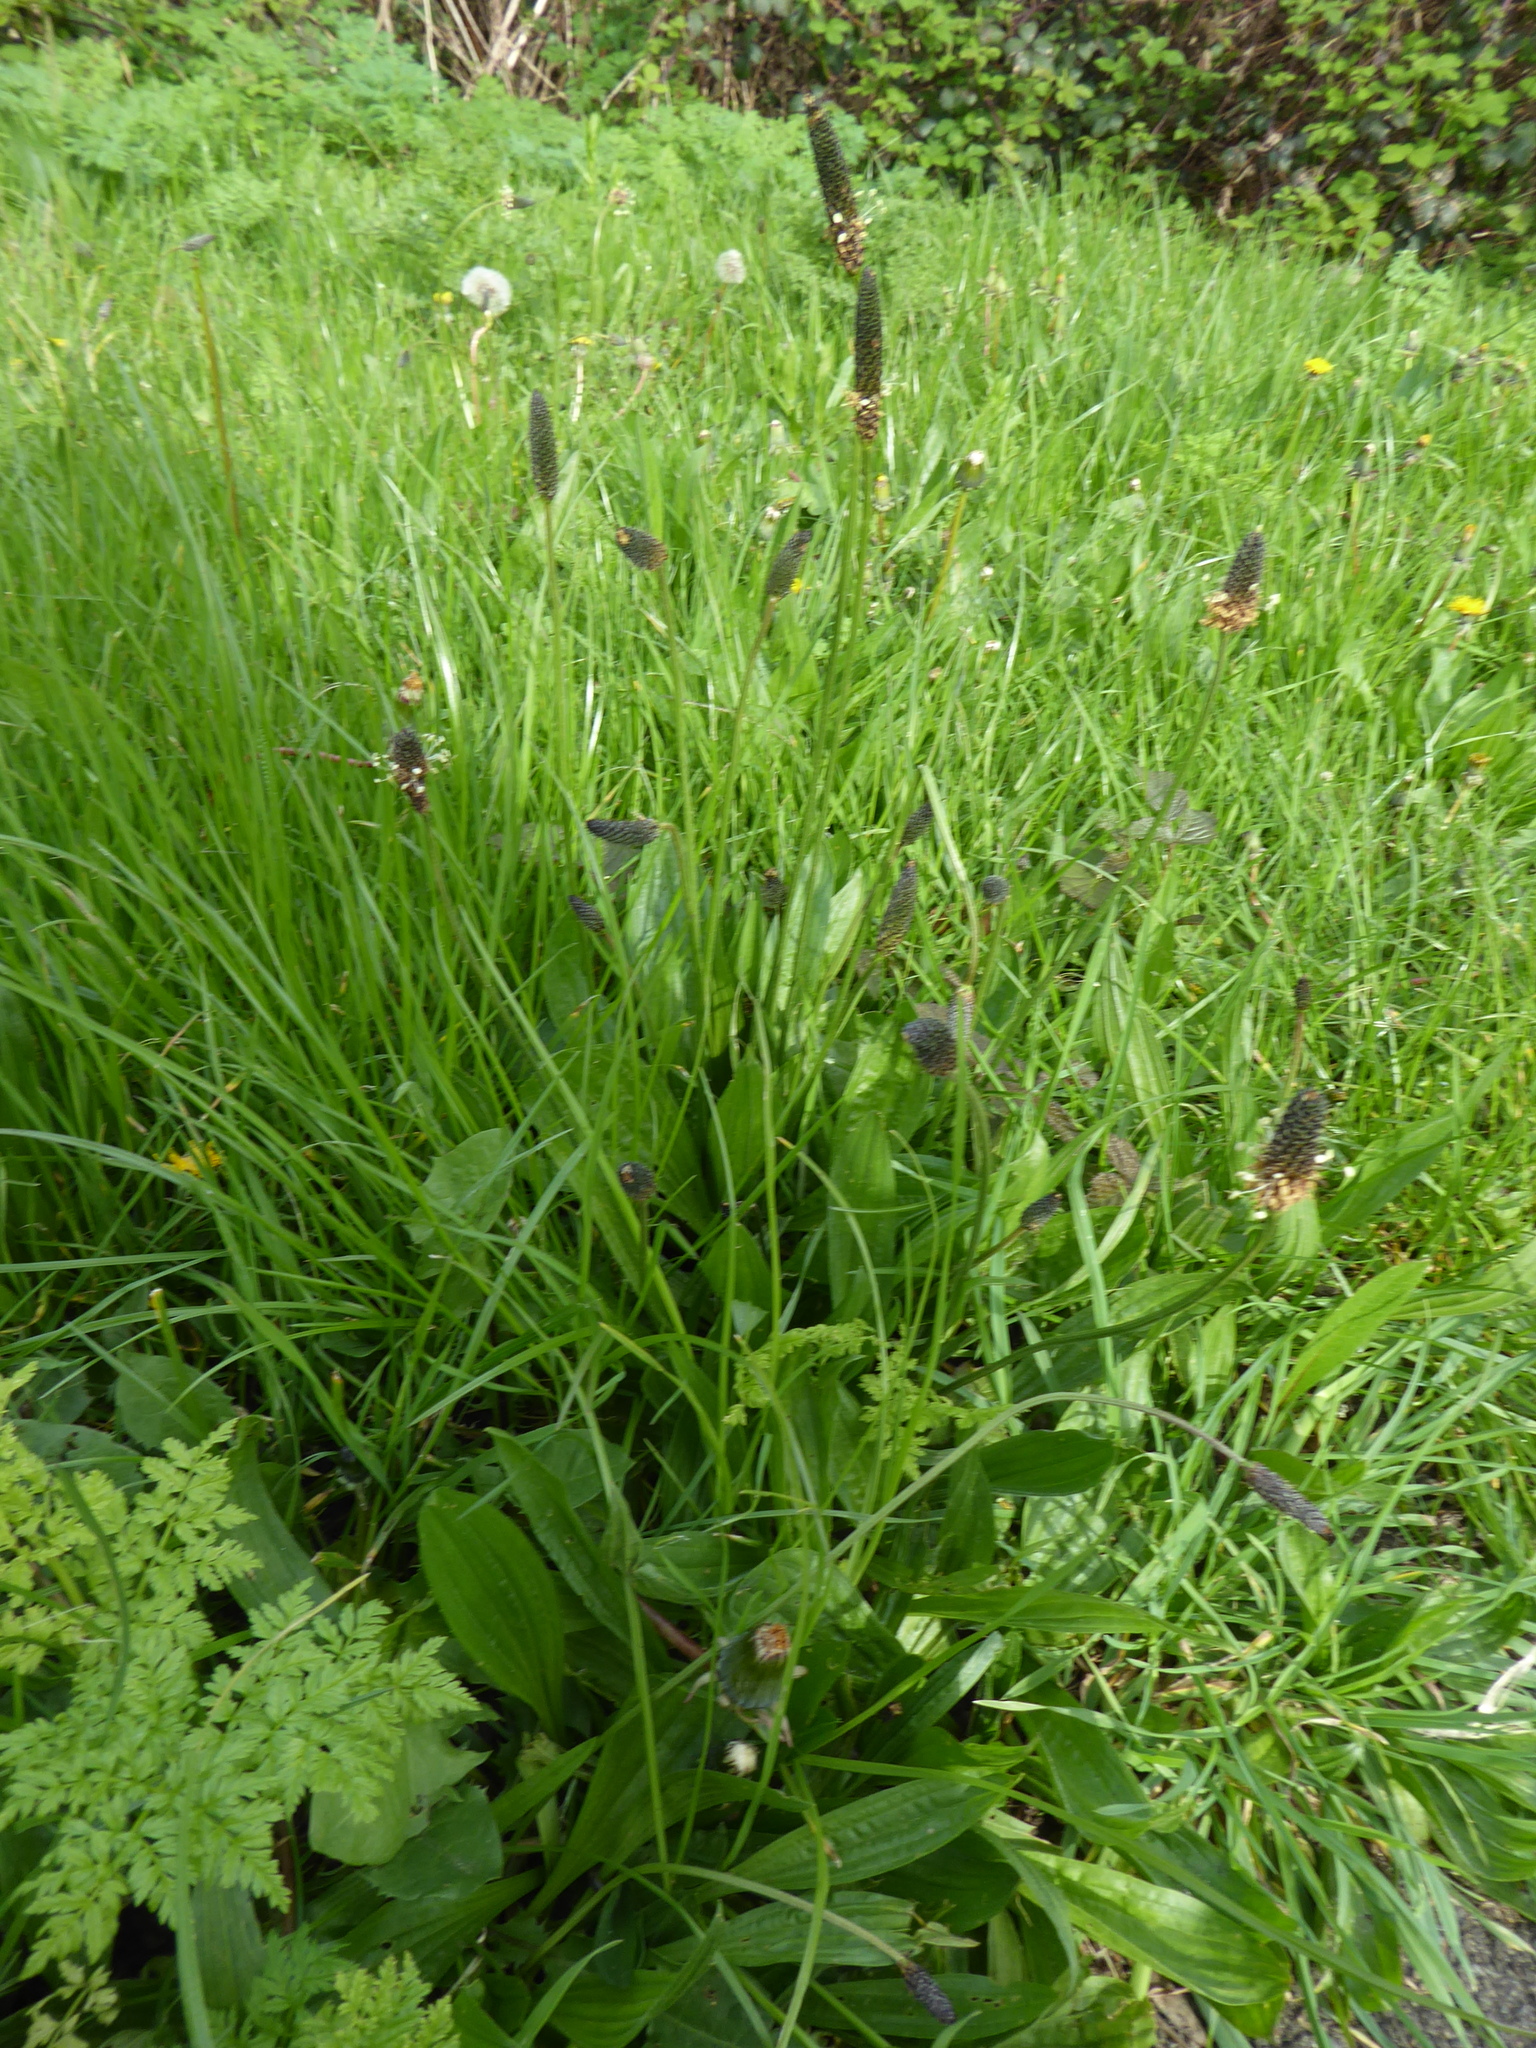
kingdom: Plantae
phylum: Tracheophyta
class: Magnoliopsida
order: Lamiales
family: Plantaginaceae
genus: Plantago
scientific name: Plantago lanceolata
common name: Ribwort plantain
